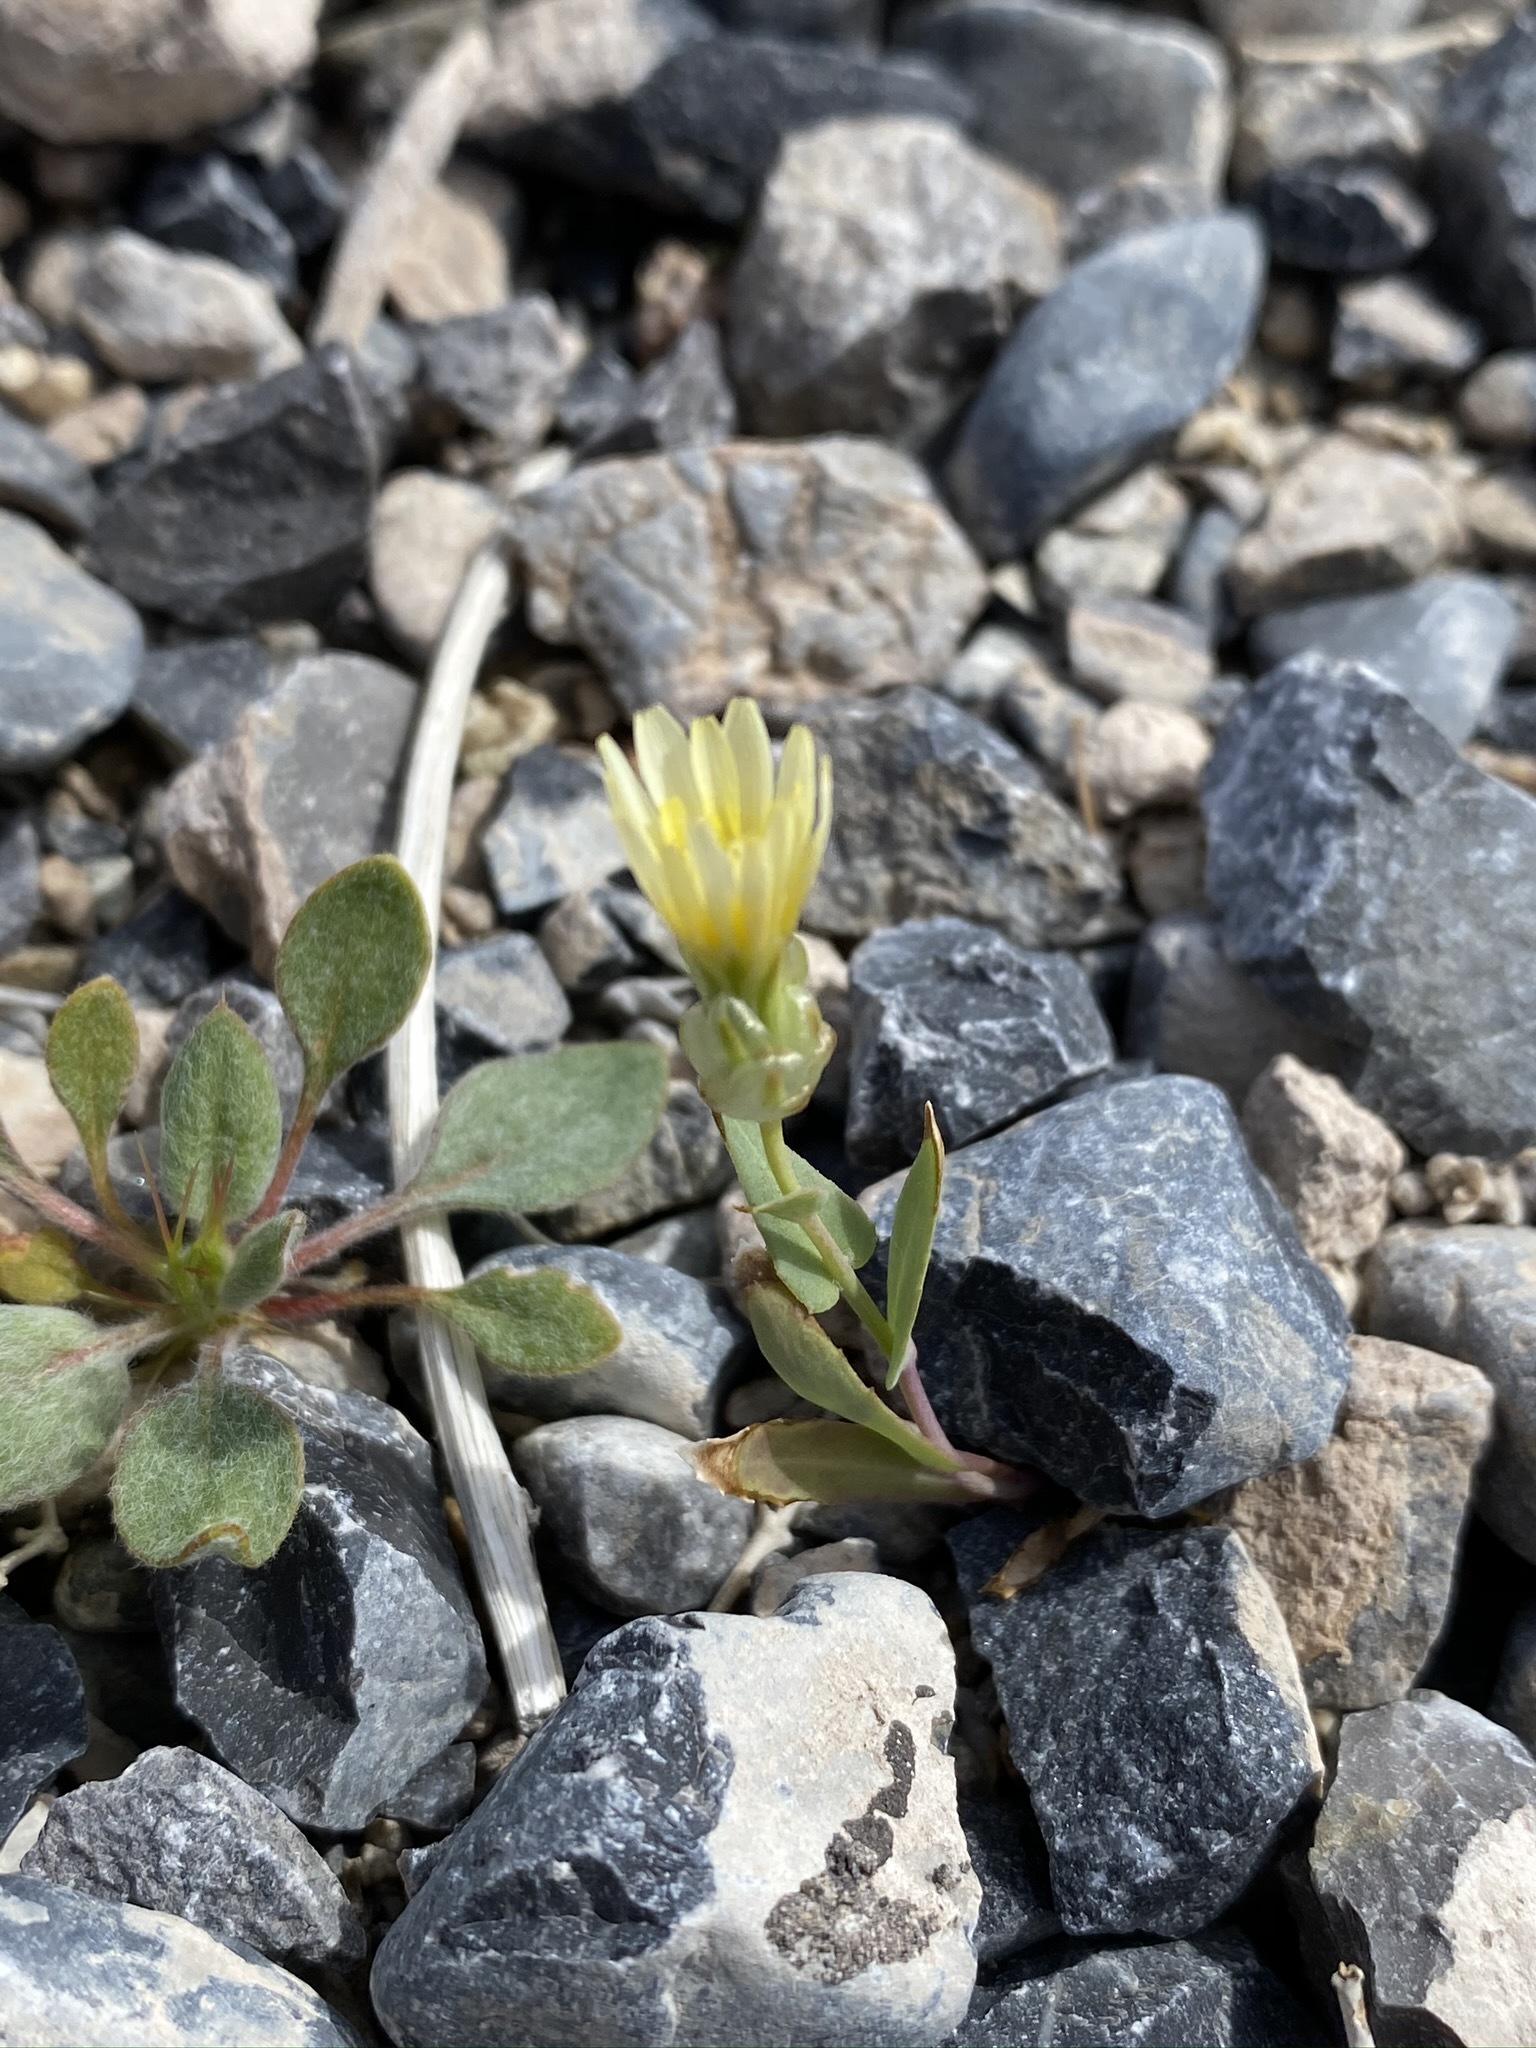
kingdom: Plantae
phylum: Tracheophyta
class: Magnoliopsida
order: Asterales
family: Asteraceae
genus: Malacothrix
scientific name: Malacothrix coulteri
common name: Snake's-head
